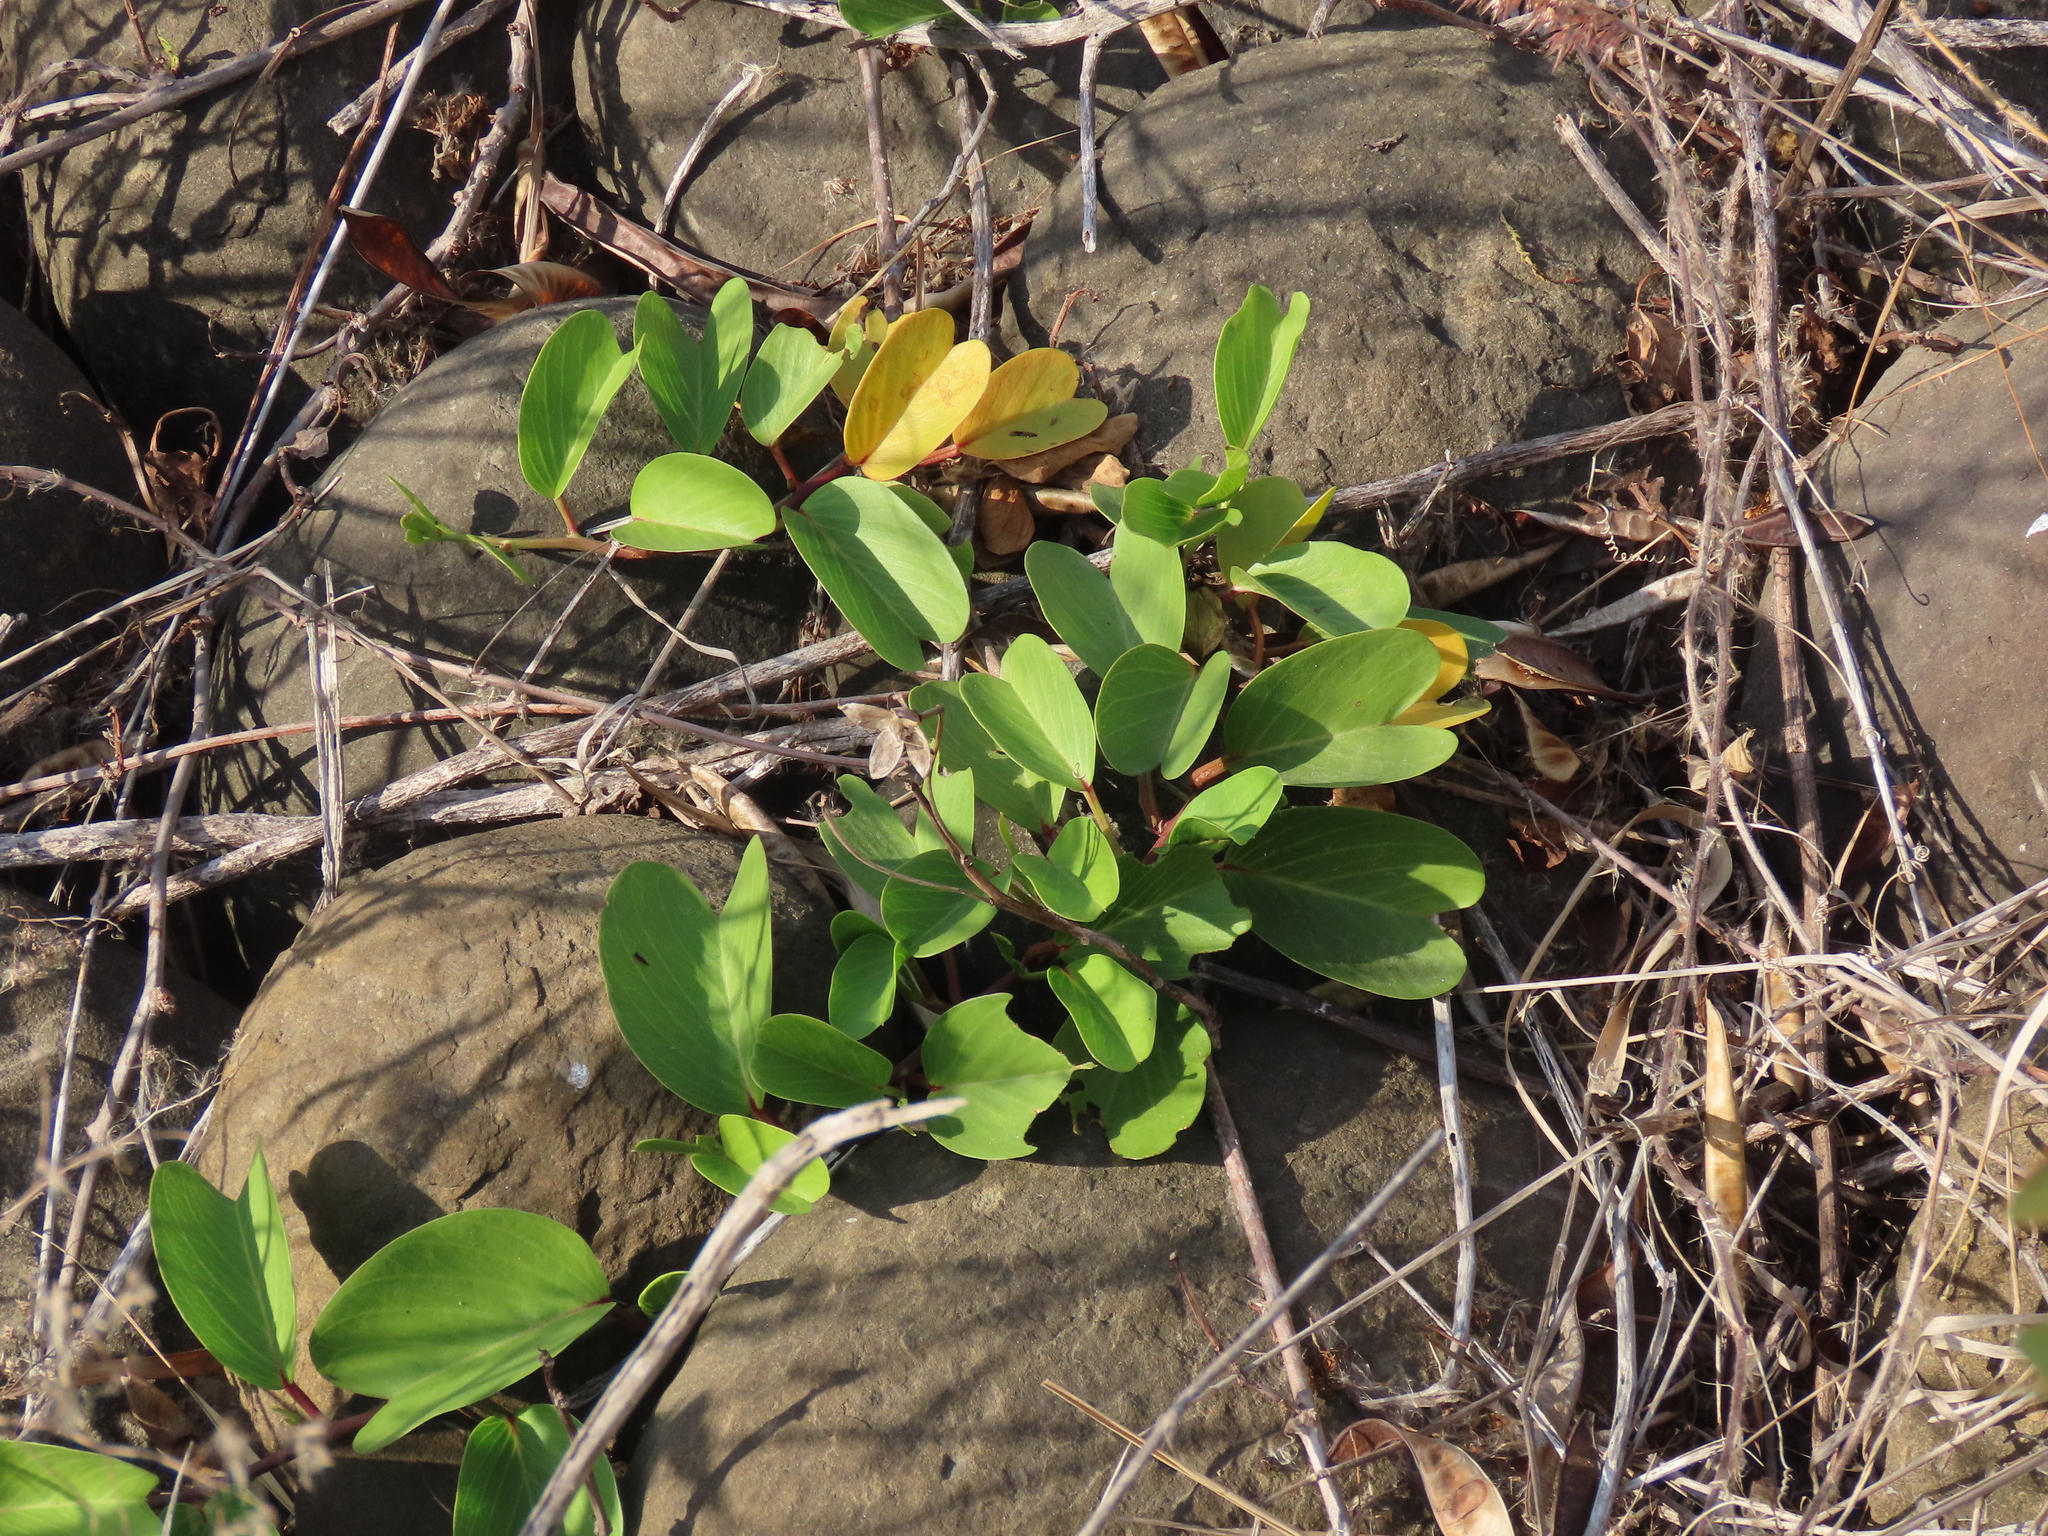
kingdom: Plantae
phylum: Tracheophyta
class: Magnoliopsida
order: Solanales
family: Convolvulaceae
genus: Ipomoea
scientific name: Ipomoea pes-caprae
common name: Beach morning glory
